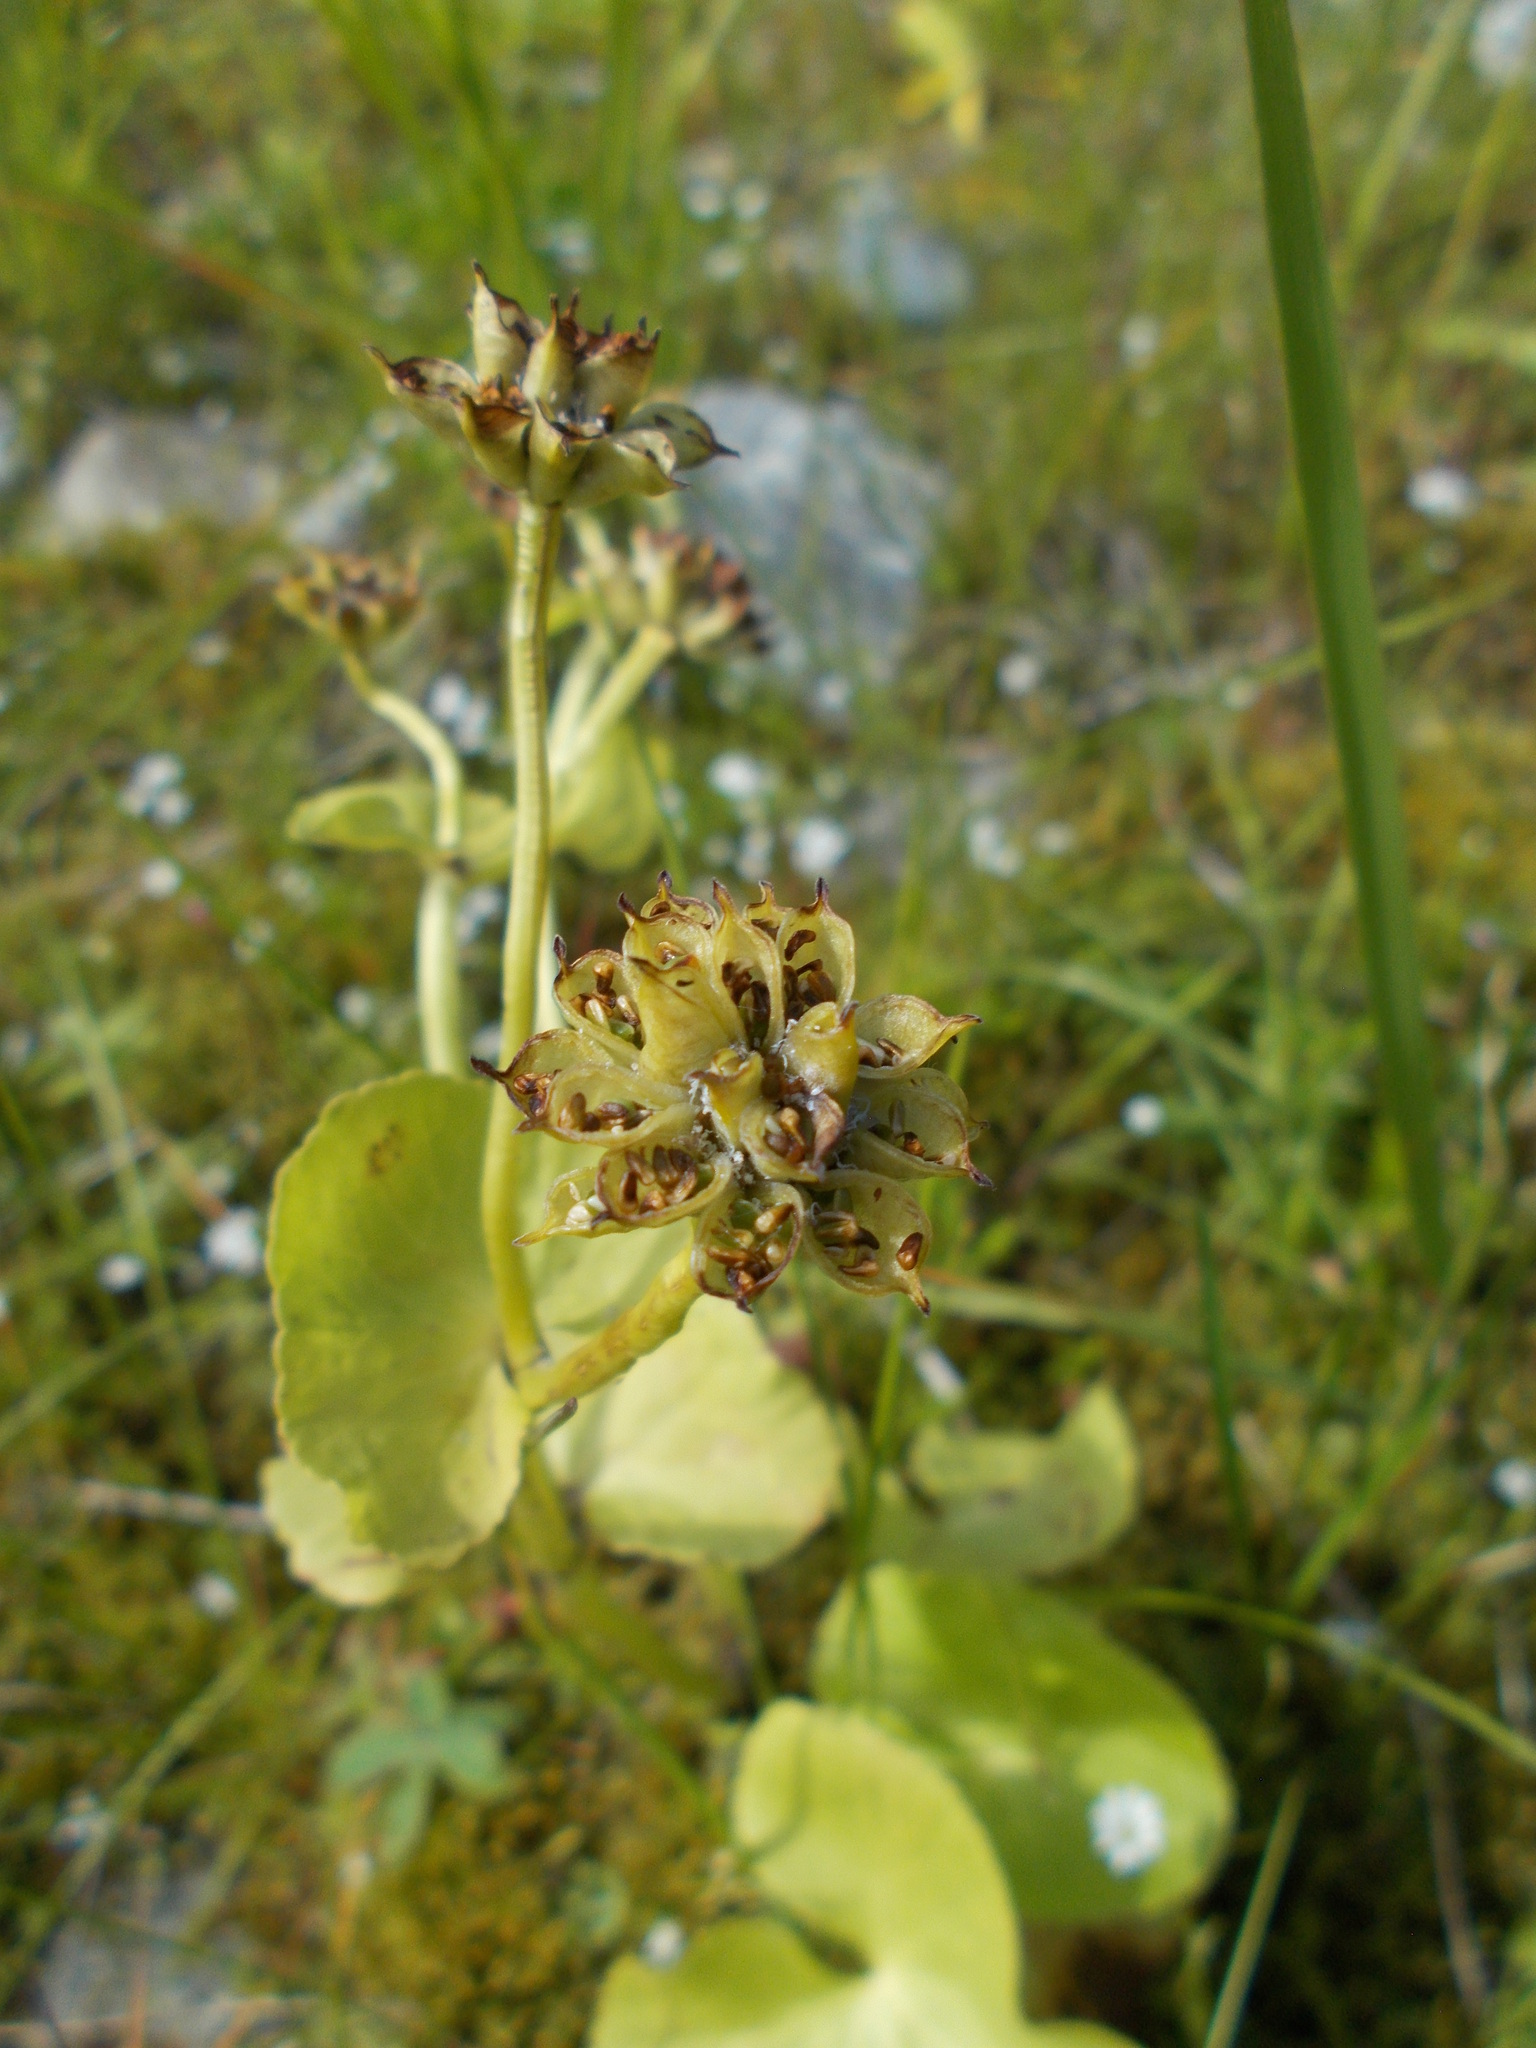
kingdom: Plantae
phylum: Tracheophyta
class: Magnoliopsida
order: Ranunculales
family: Ranunculaceae
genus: Caltha
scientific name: Caltha palustris
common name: Marsh marigold
